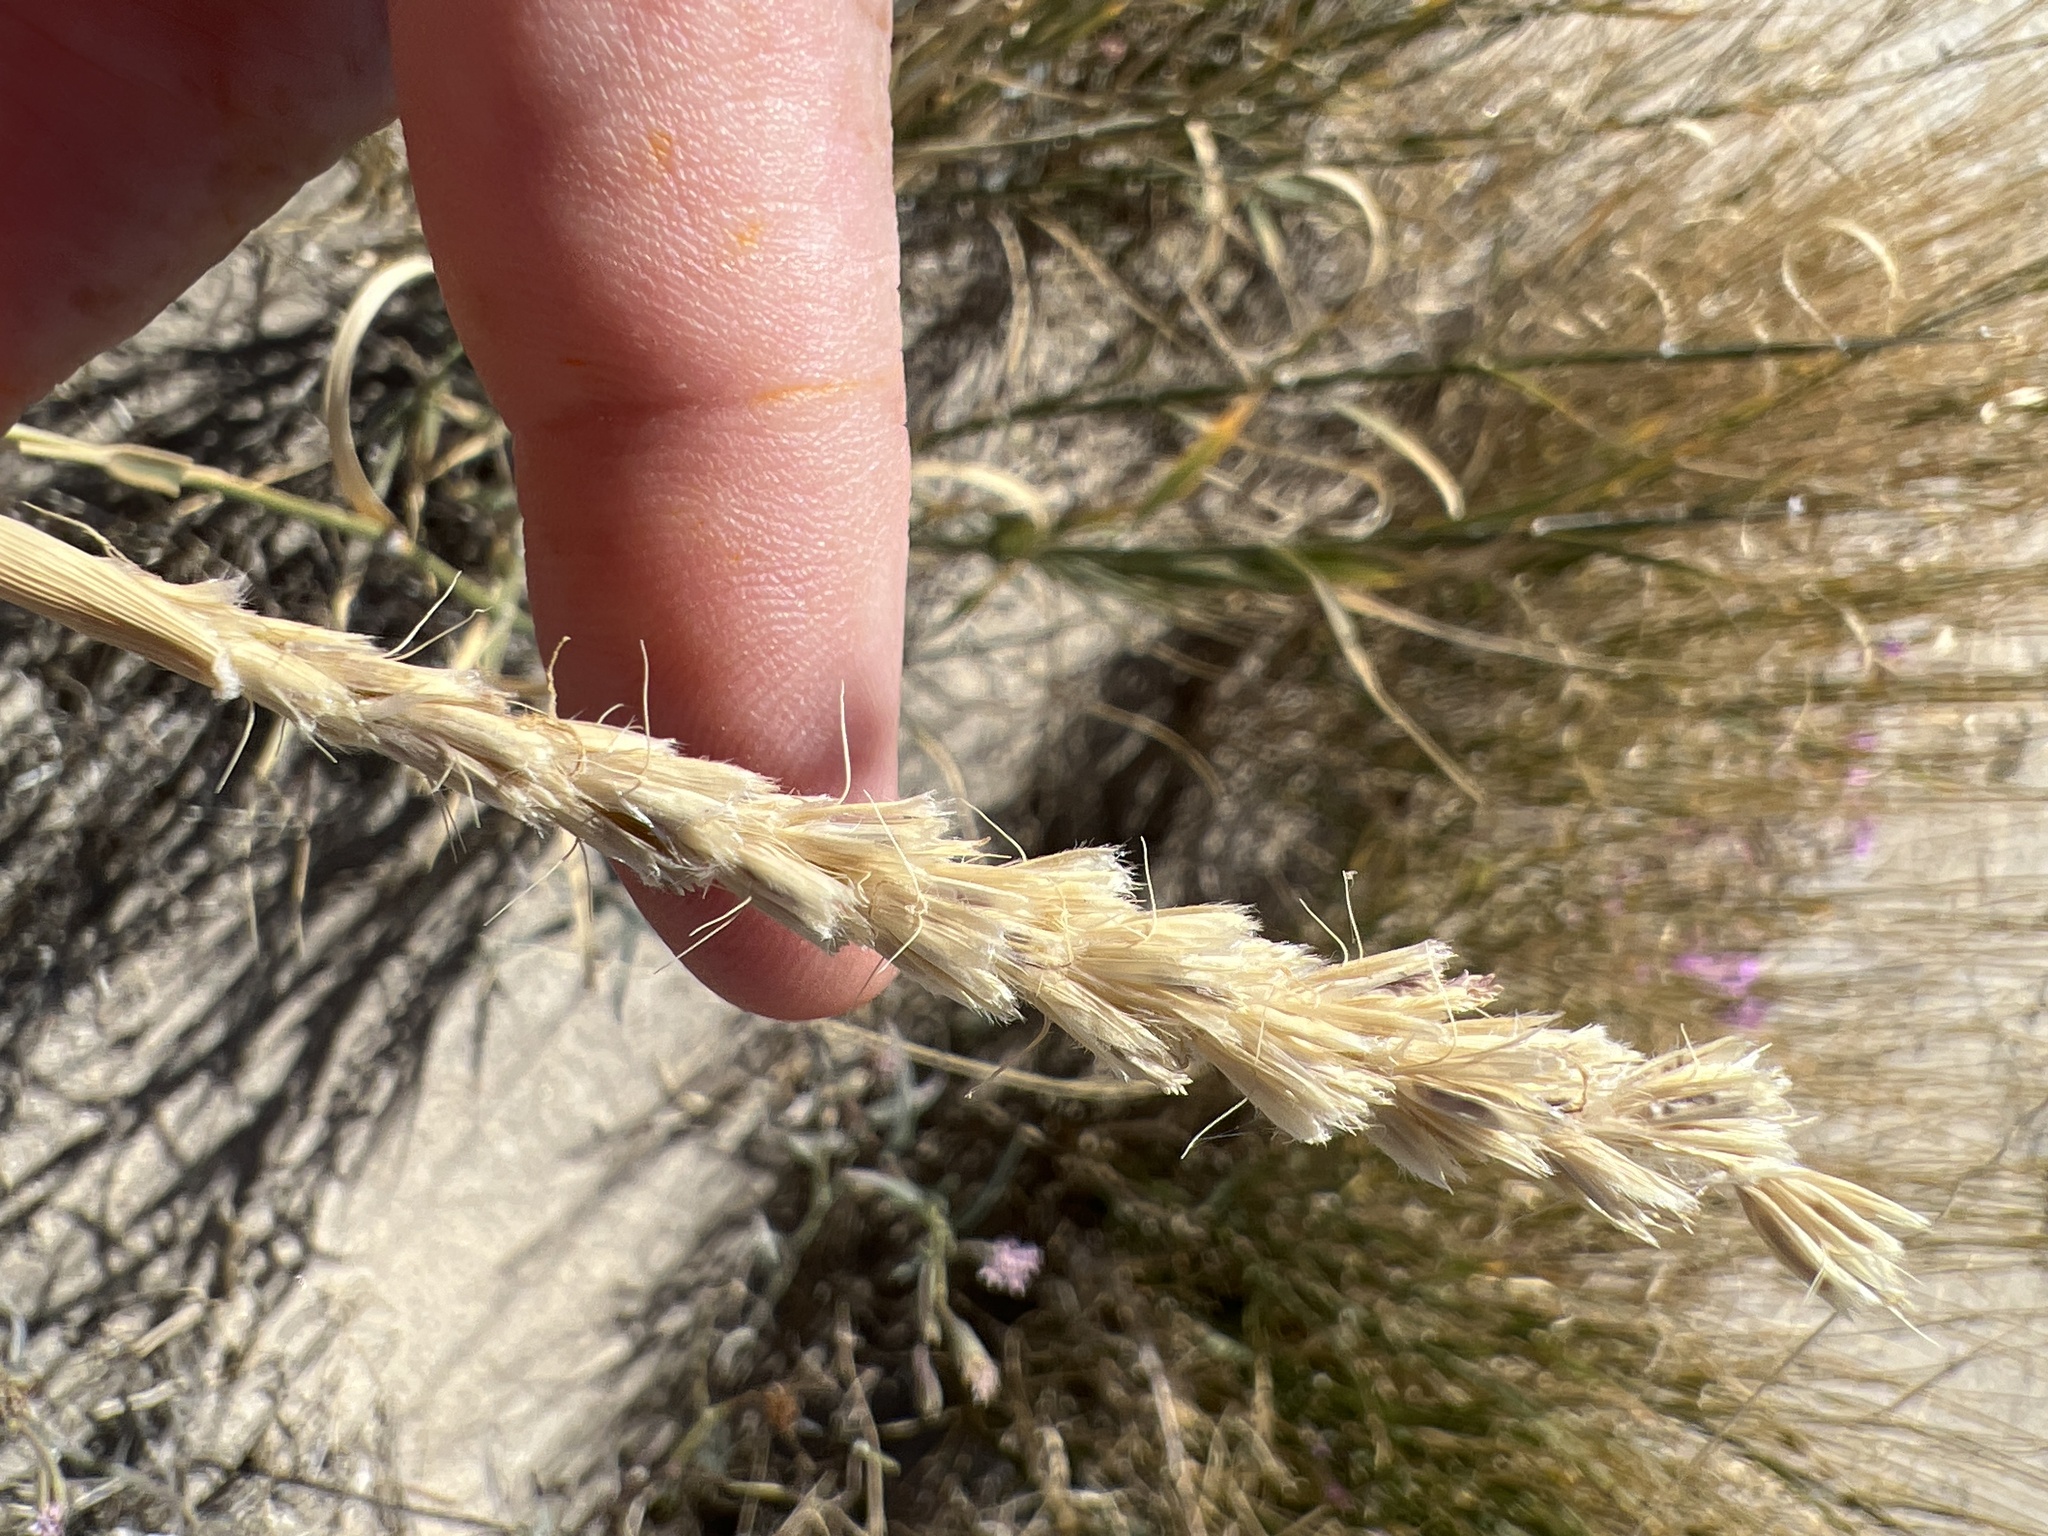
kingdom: Plantae
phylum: Tracheophyta
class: Liliopsida
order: Poales
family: Poaceae
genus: Hilaria
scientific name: Hilaria rigida
